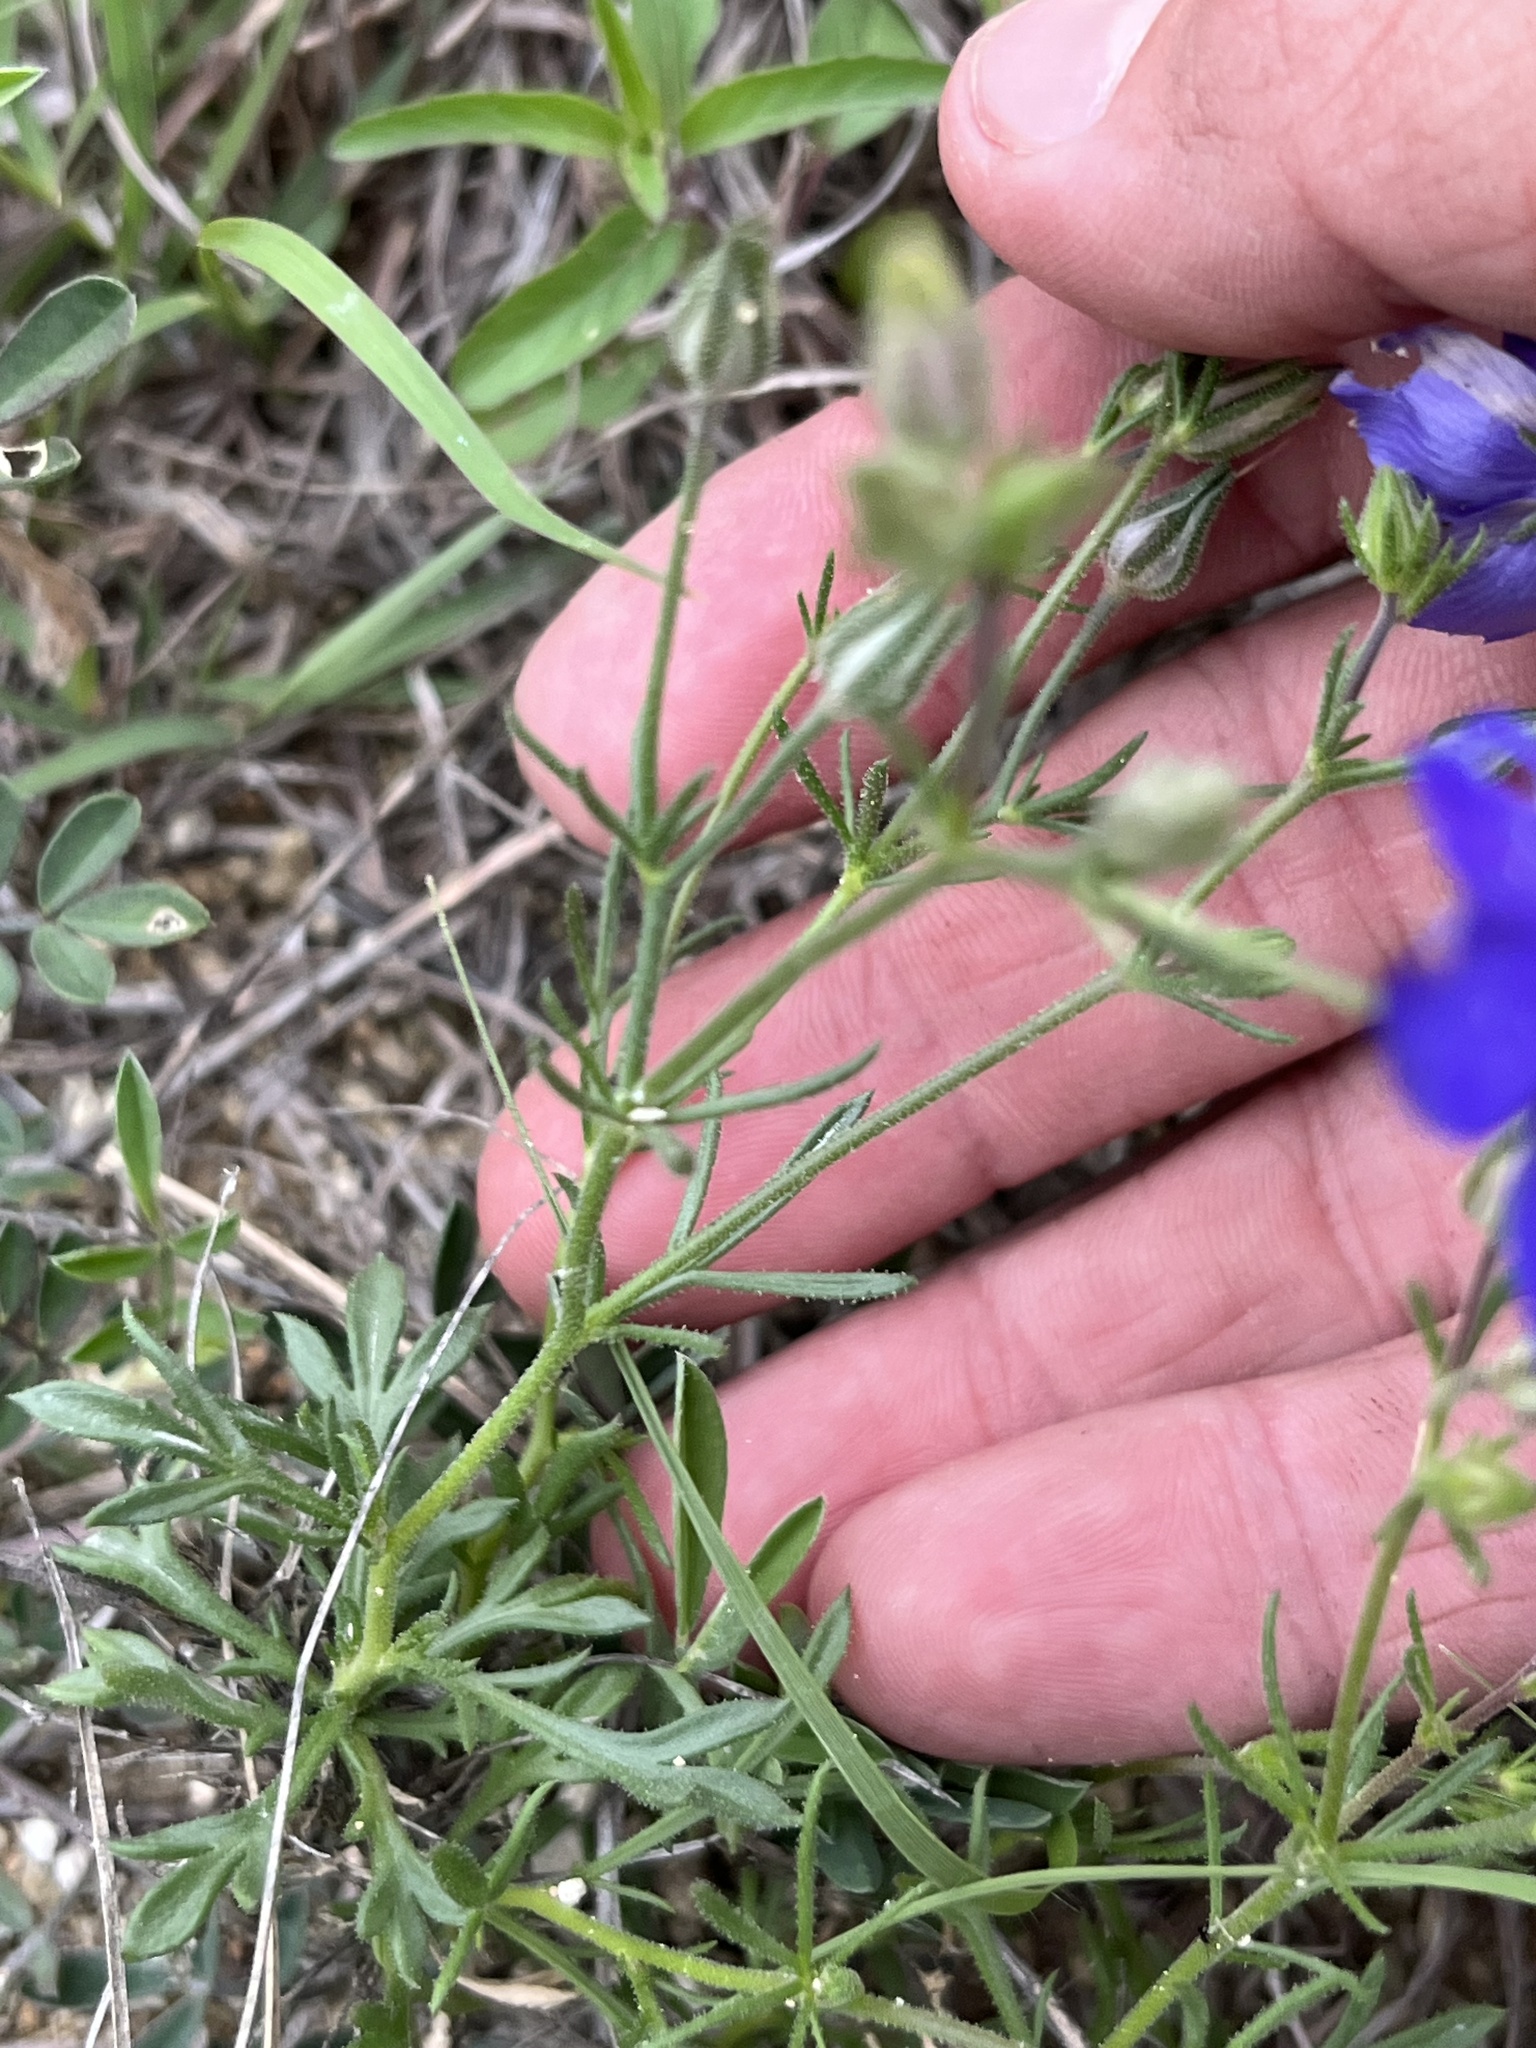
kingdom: Plantae
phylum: Tracheophyta
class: Magnoliopsida
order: Ericales
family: Polemoniaceae
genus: Giliastrum
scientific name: Giliastrum rigidulum
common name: Bluebowls
